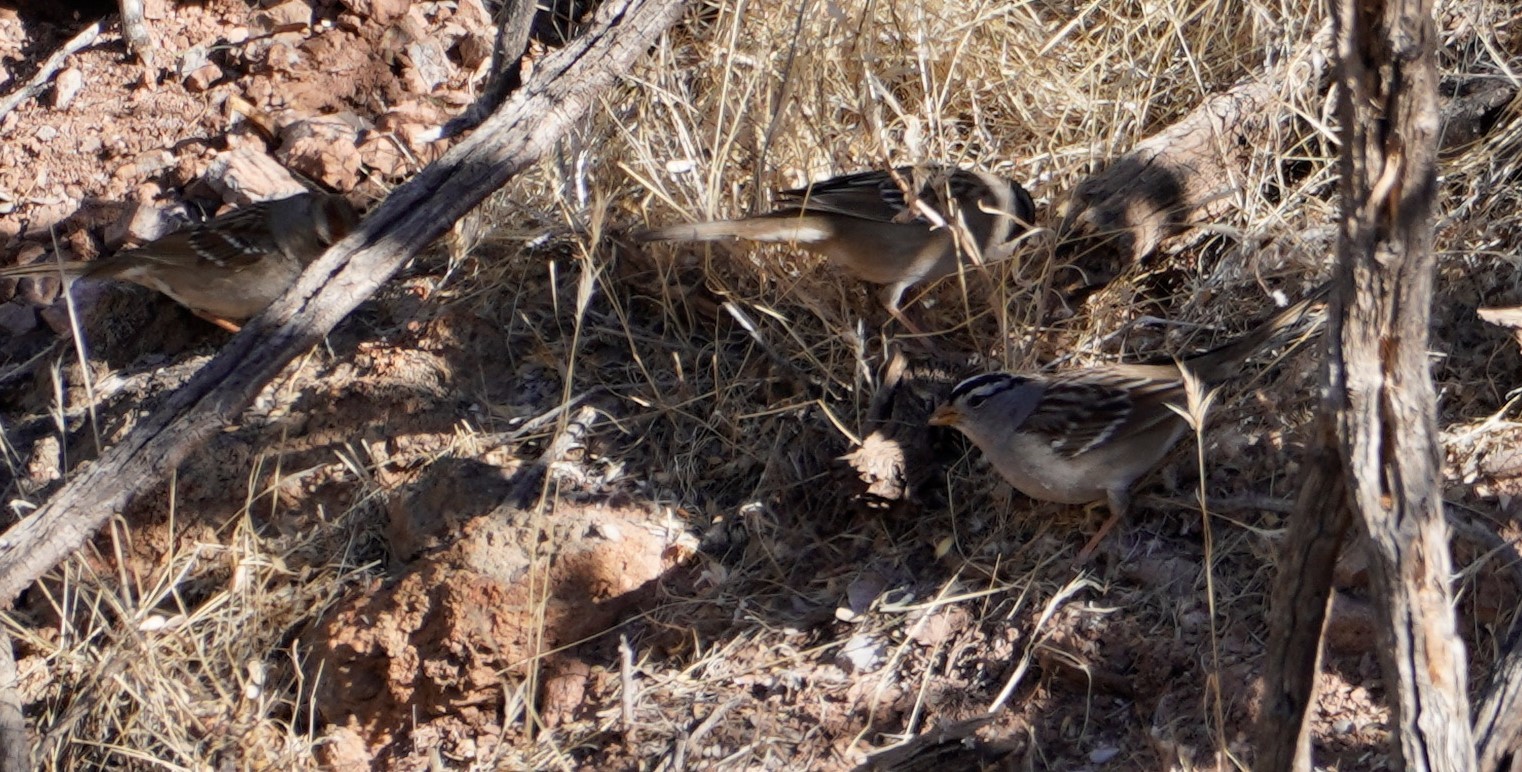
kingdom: Animalia
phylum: Chordata
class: Aves
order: Passeriformes
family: Passerellidae
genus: Zonotrichia
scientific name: Zonotrichia leucophrys
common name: White-crowned sparrow
